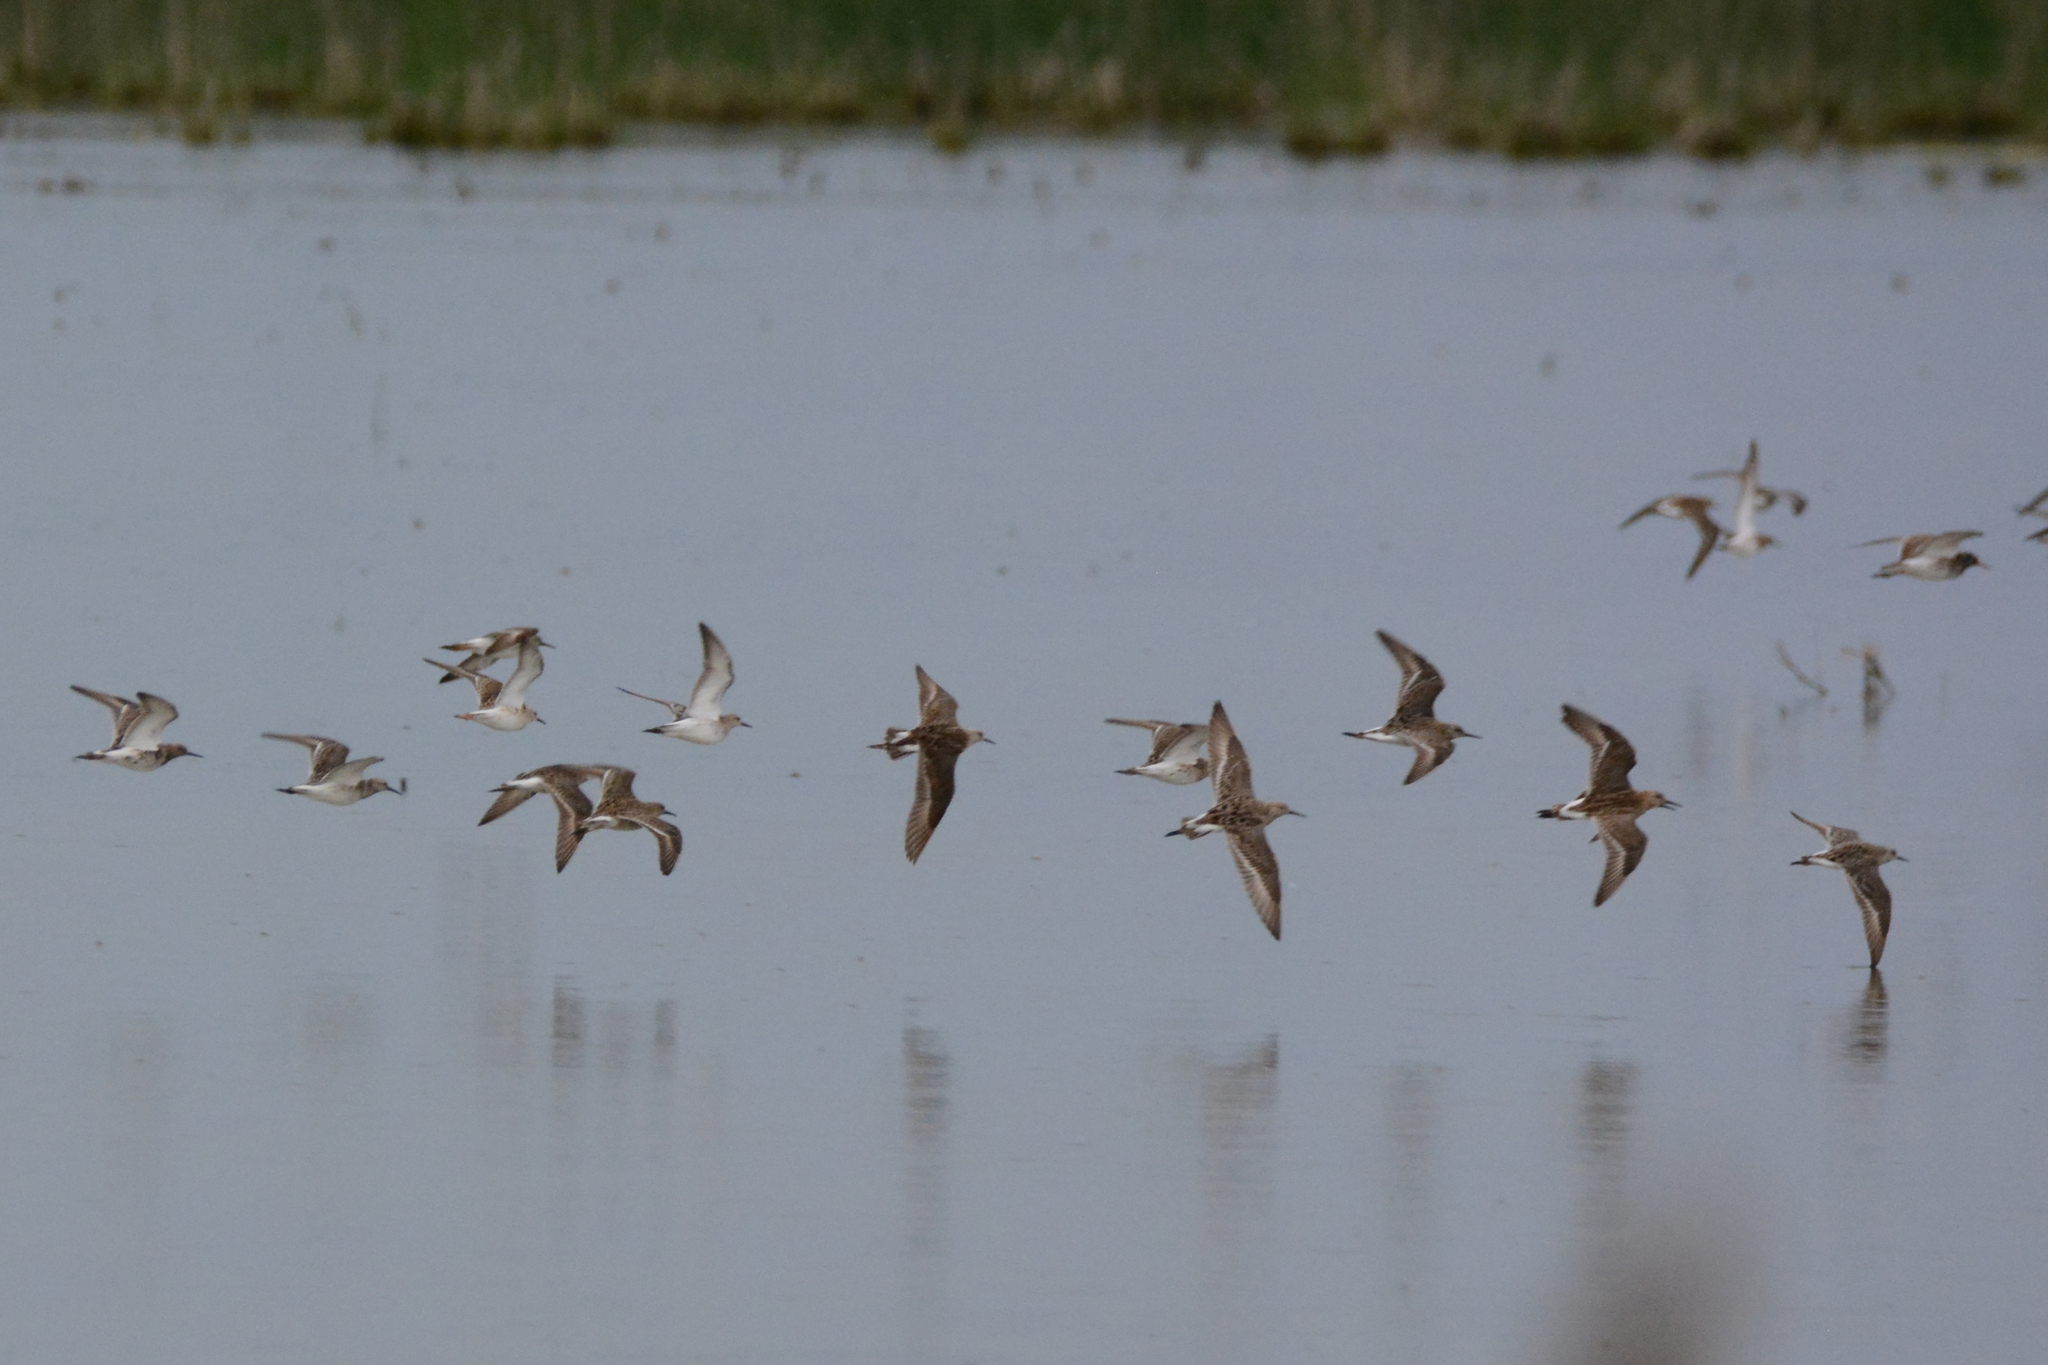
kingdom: Animalia
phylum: Chordata
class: Aves
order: Charadriiformes
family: Scolopacidae
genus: Calidris
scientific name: Calidris pugnax
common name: Ruff
